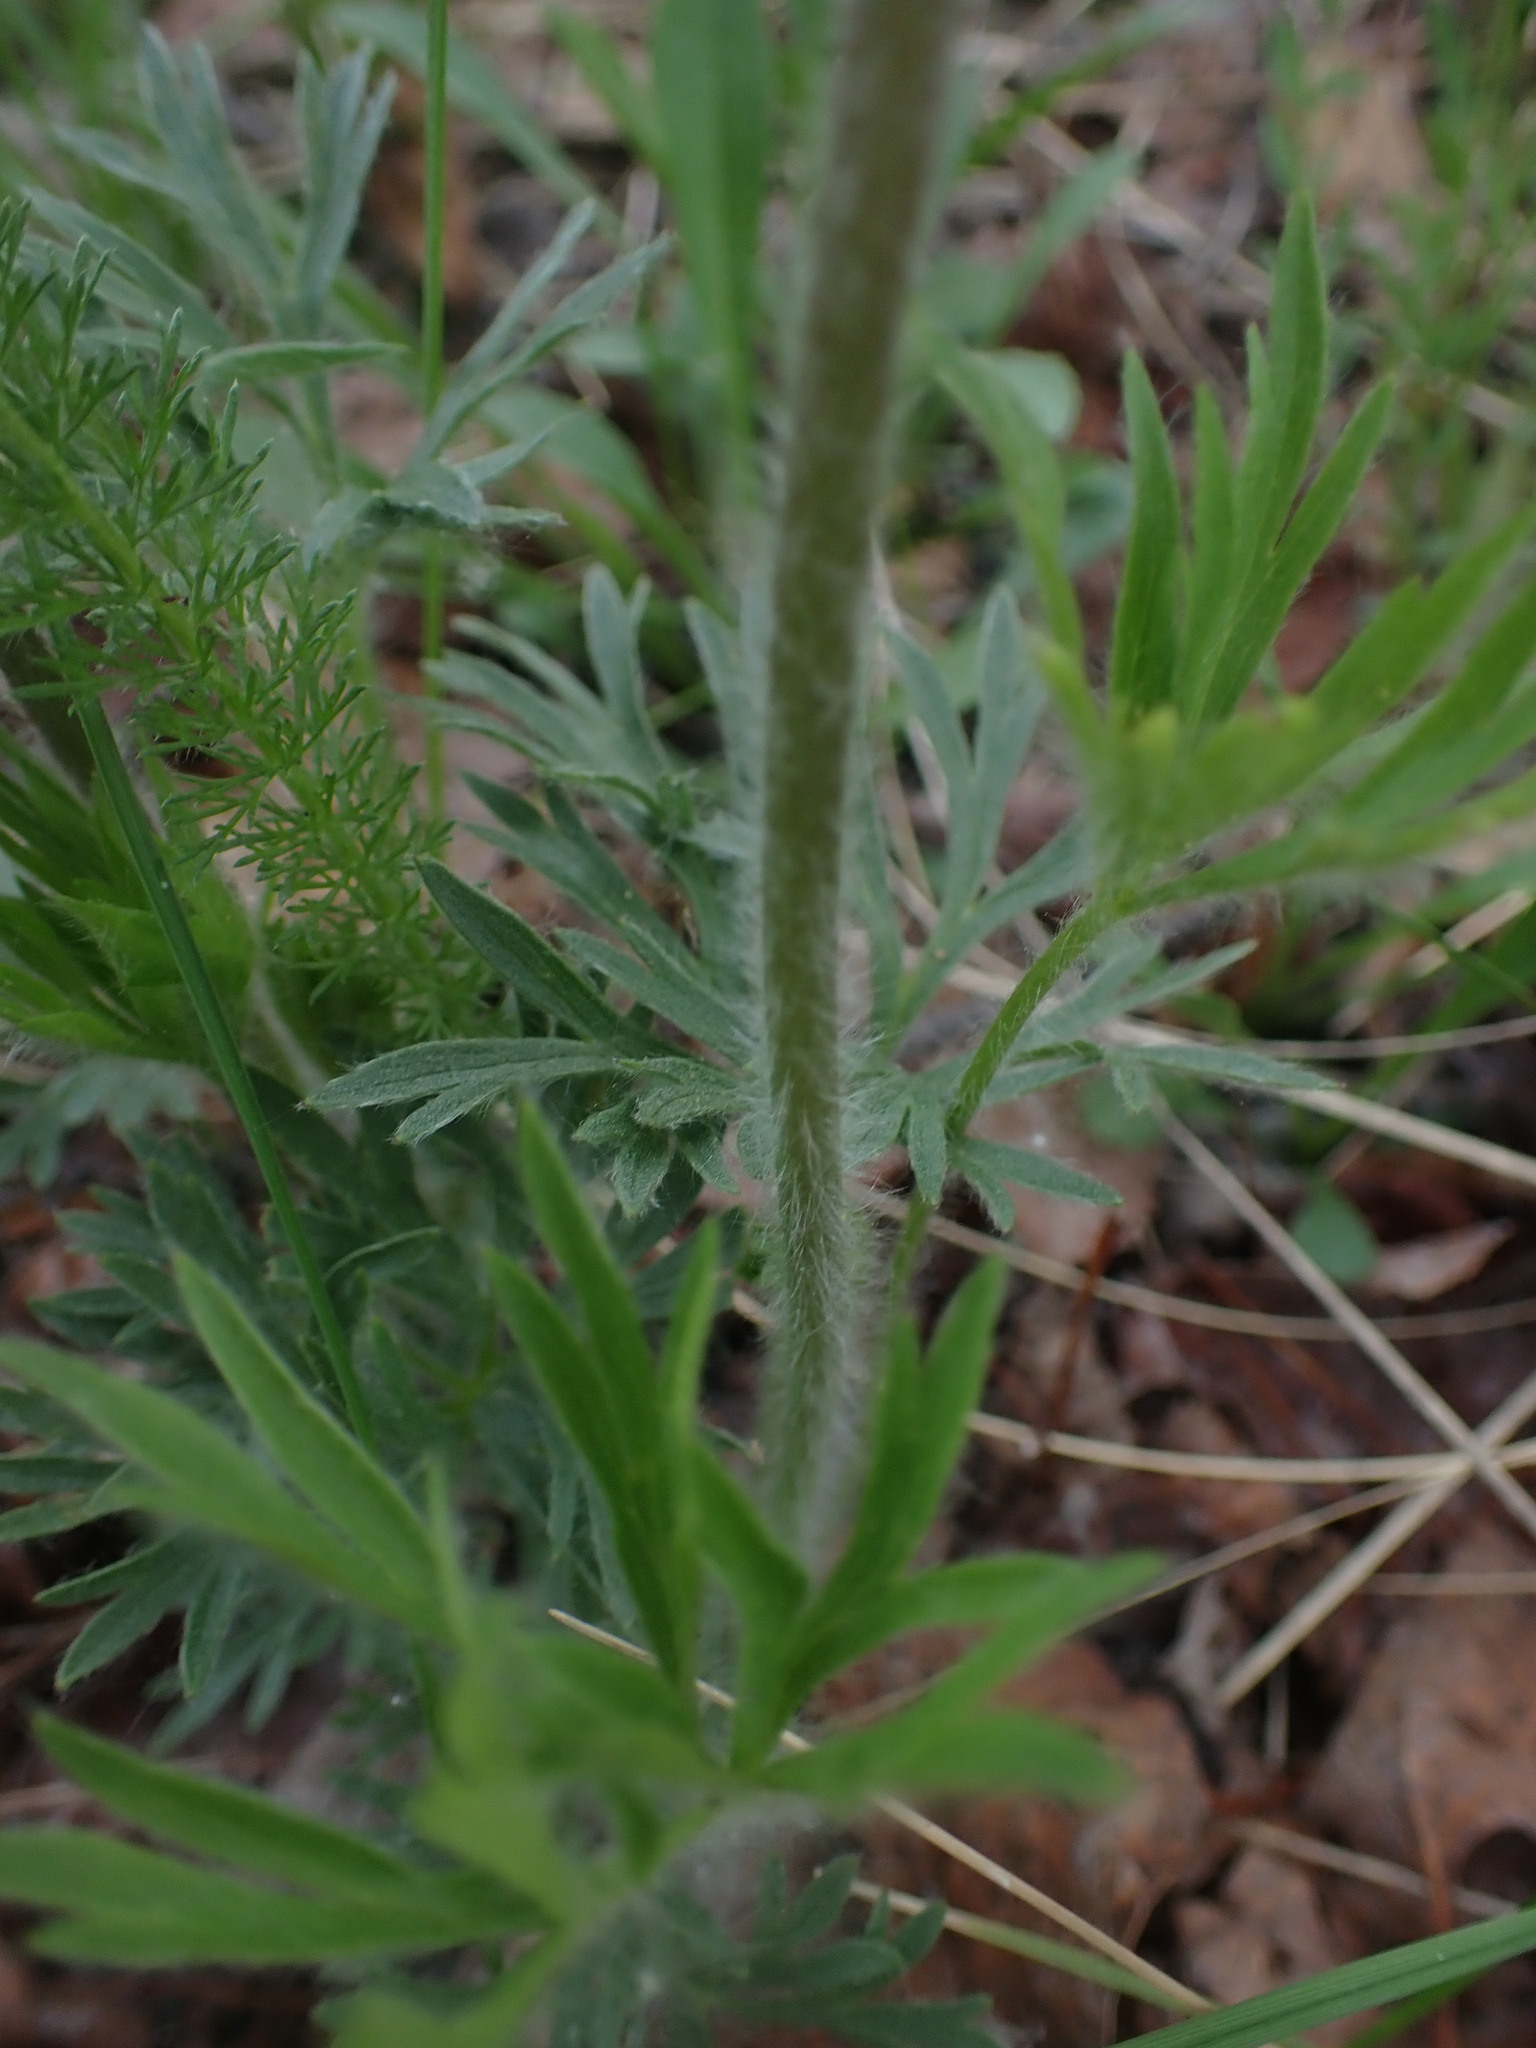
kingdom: Plantae
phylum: Tracheophyta
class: Magnoliopsida
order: Ranunculales
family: Ranunculaceae
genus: Anemone
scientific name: Anemone multifida
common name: Bird's-foot anemone
